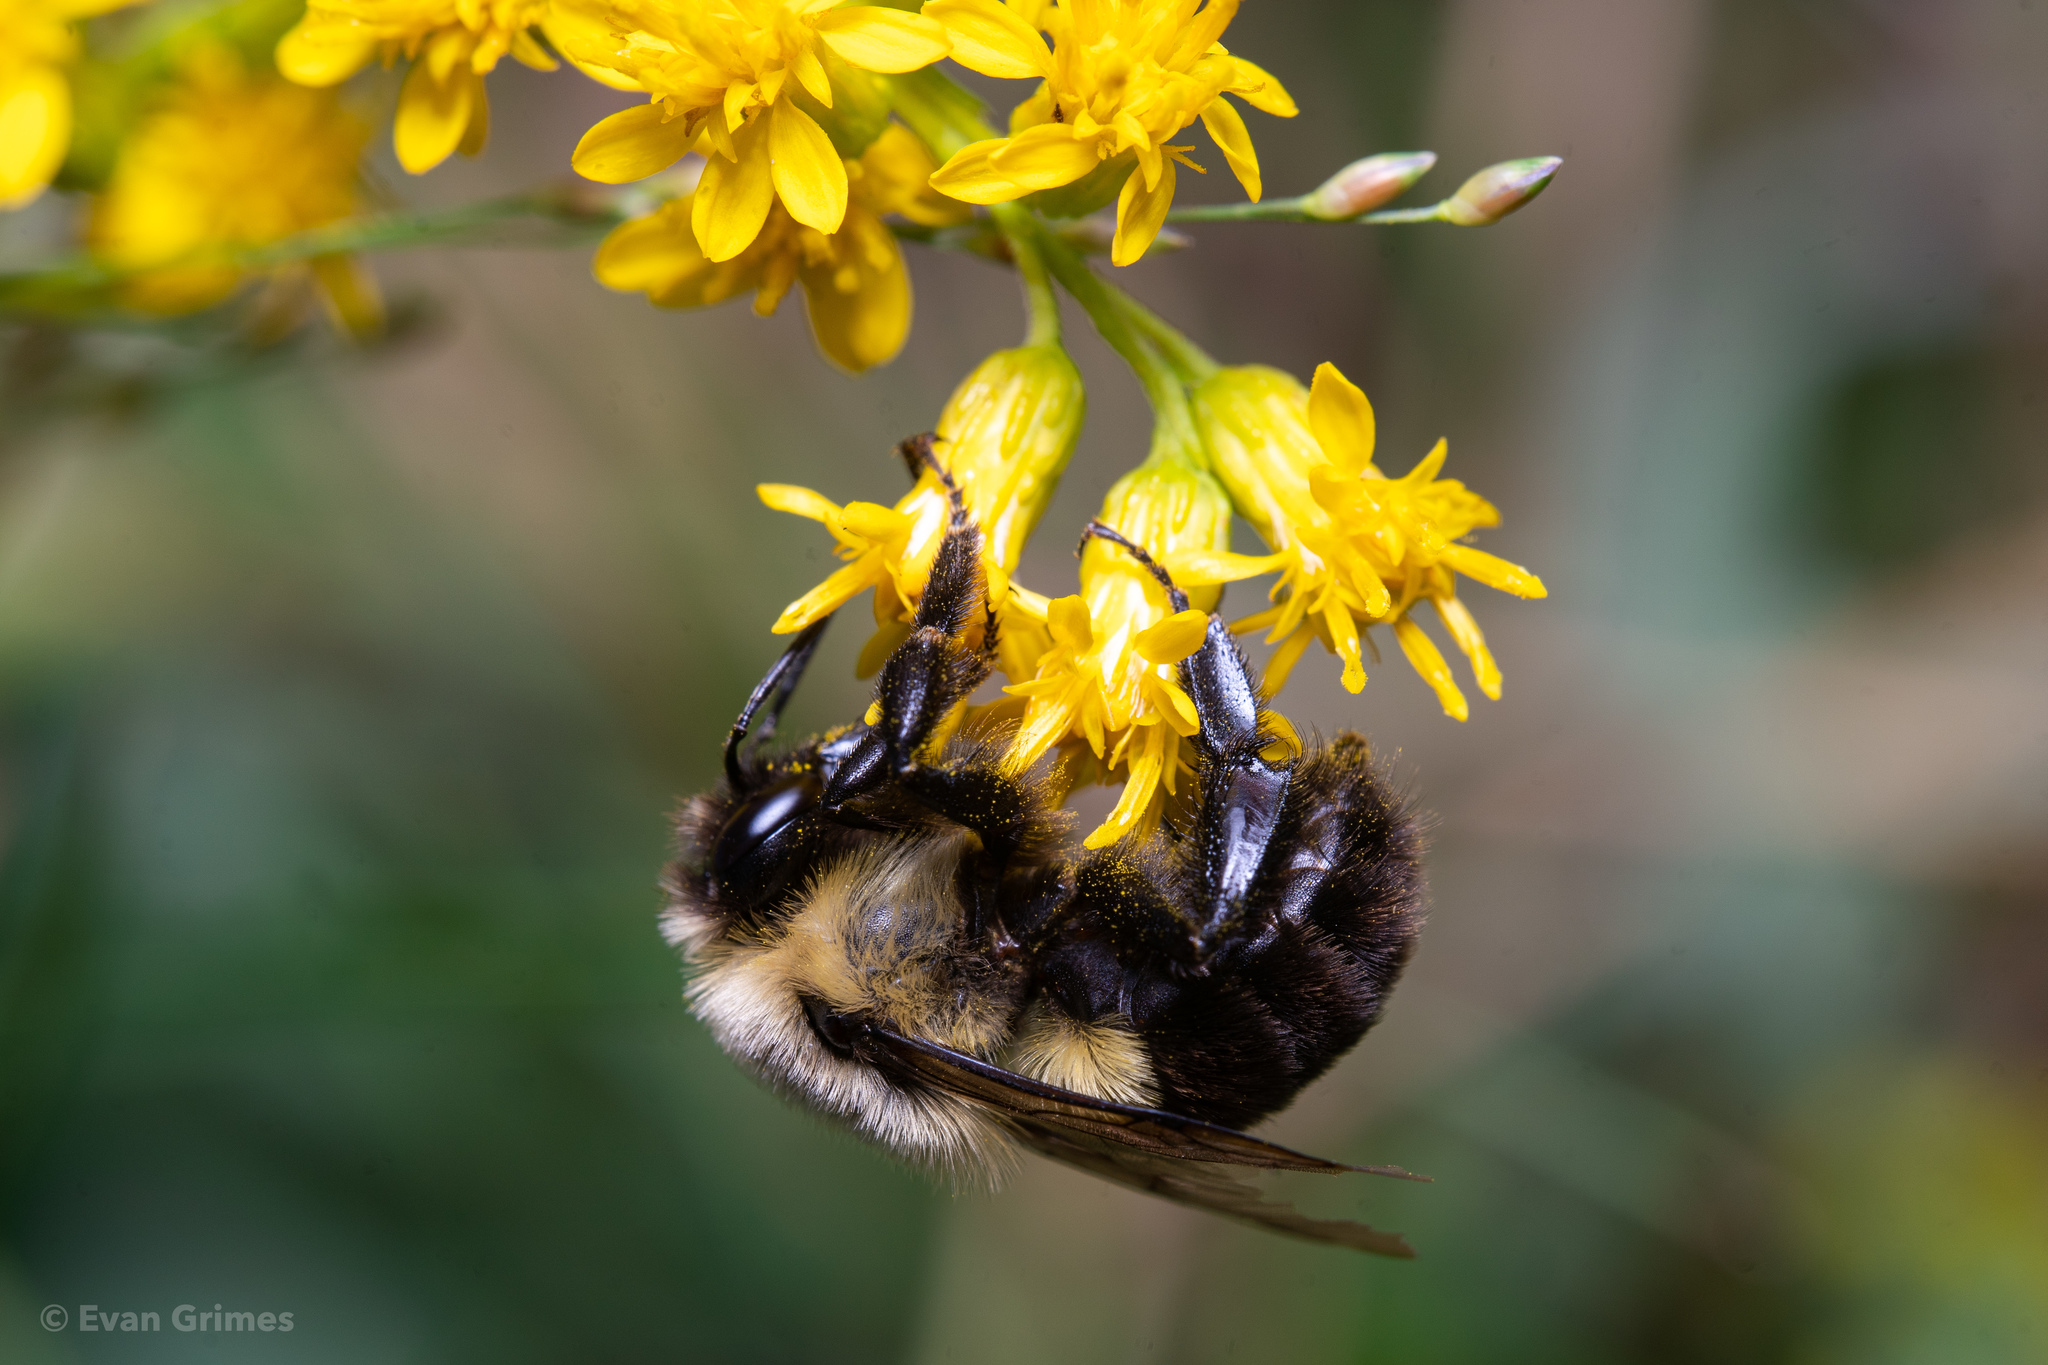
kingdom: Animalia
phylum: Arthropoda
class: Insecta
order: Hymenoptera
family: Apidae
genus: Bombus
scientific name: Bombus impatiens
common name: Common eastern bumble bee
